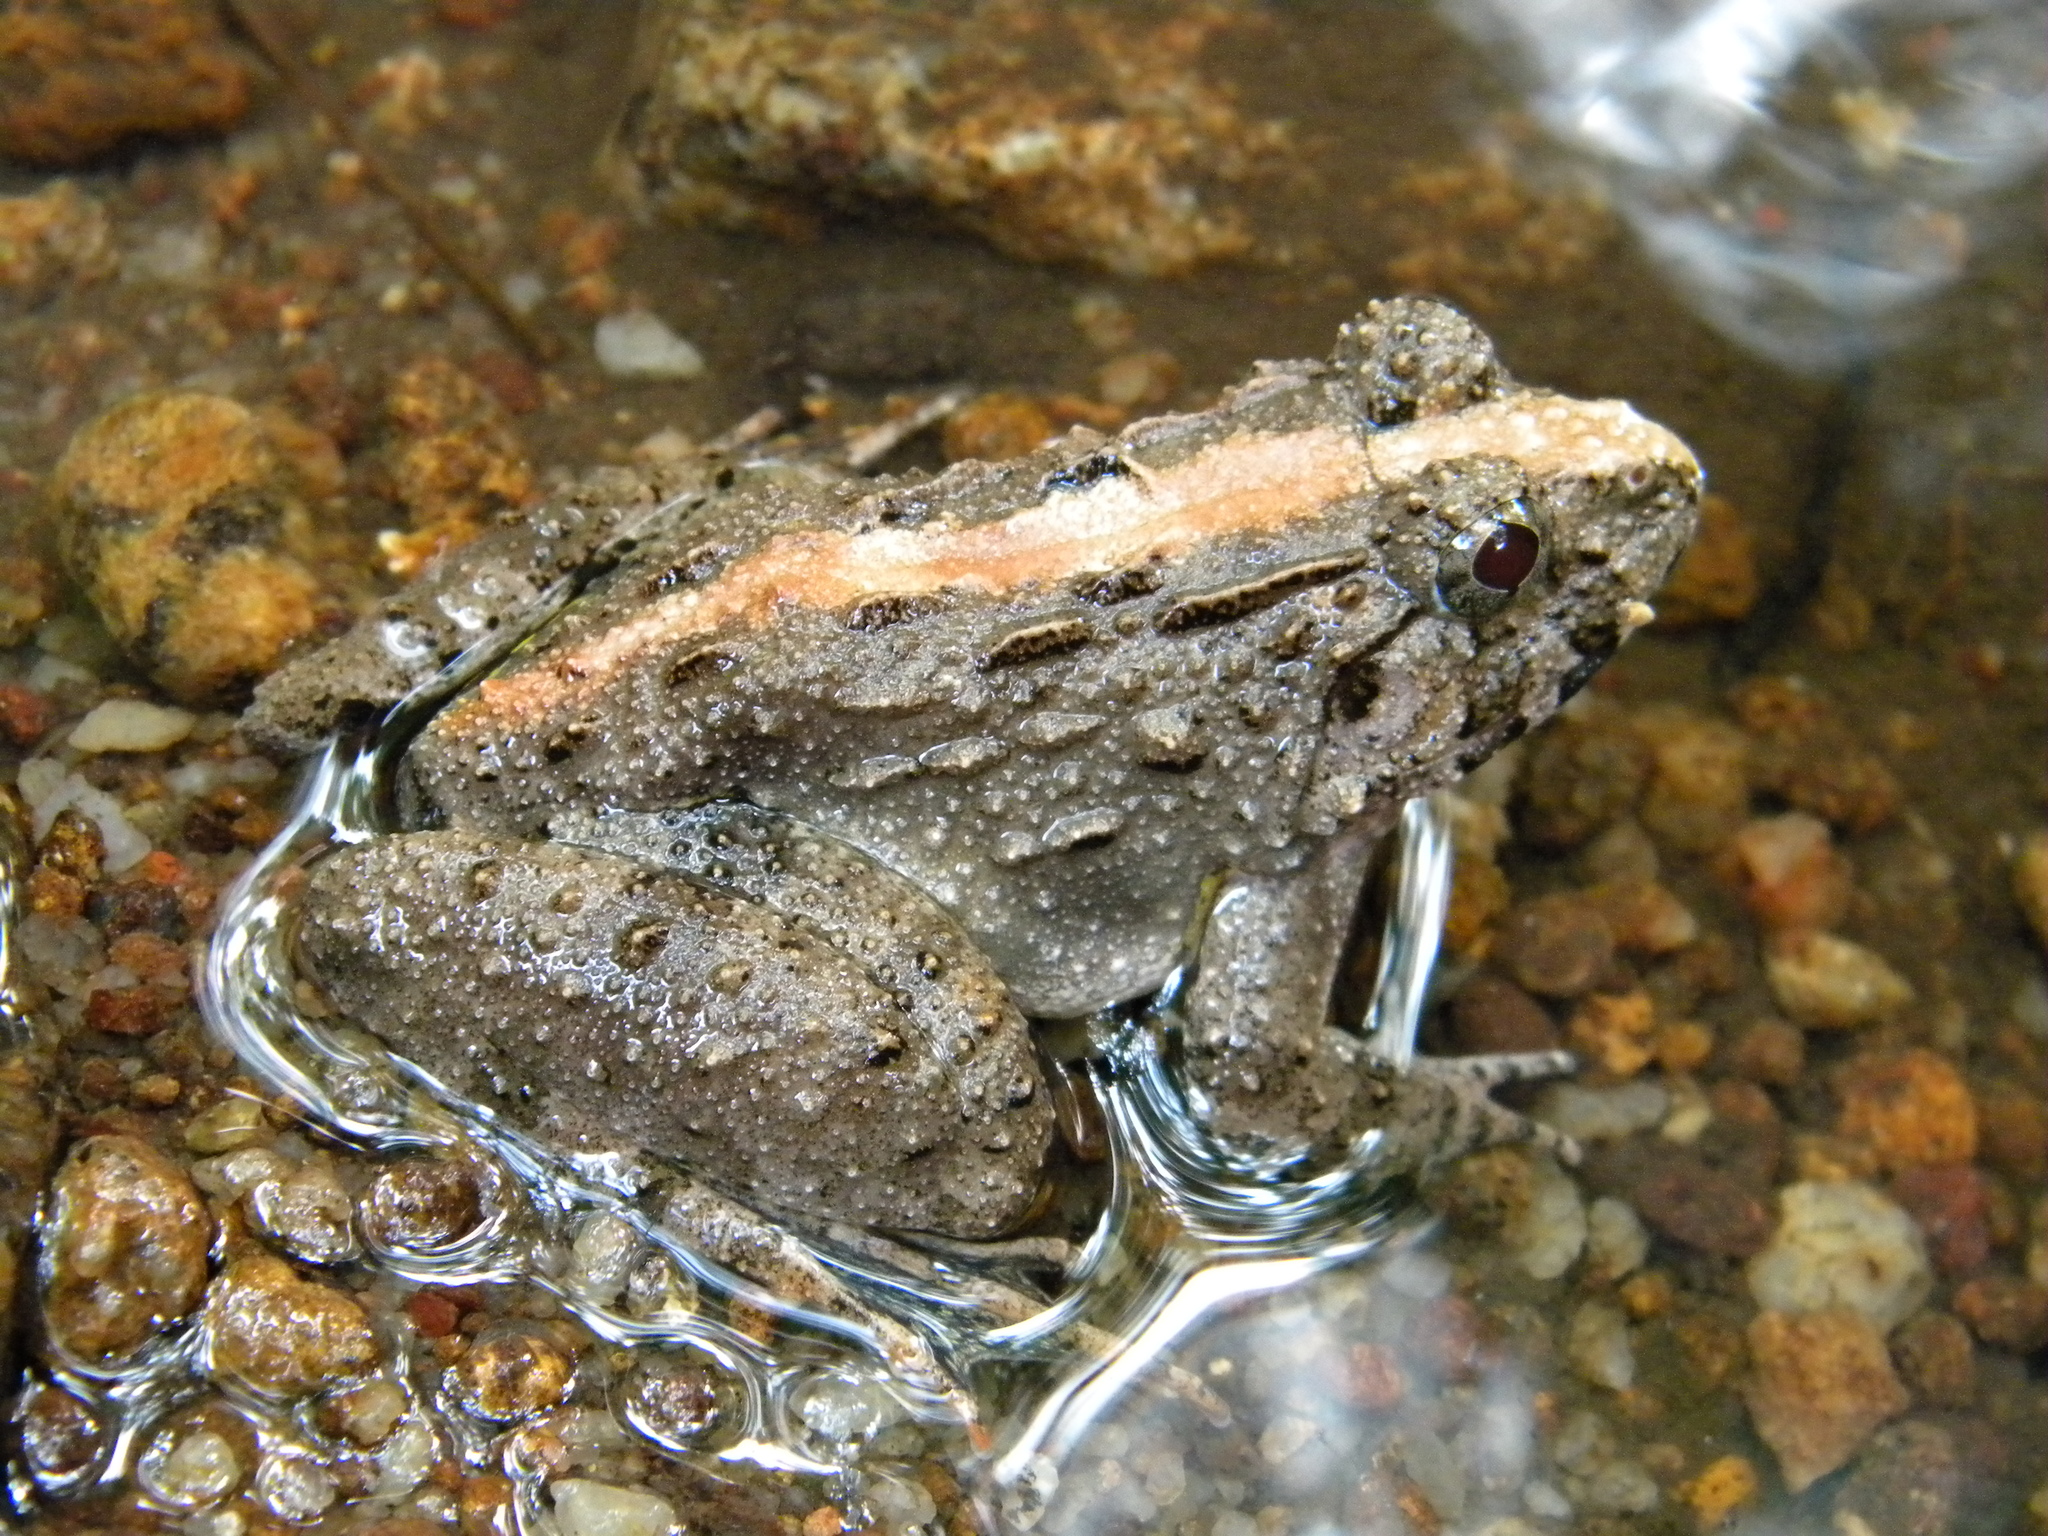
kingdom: Animalia
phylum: Chordata
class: Amphibia
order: Anura
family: Dicroglossidae
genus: Minervarya
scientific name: Minervarya keralensis
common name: Dubois' hill frog
